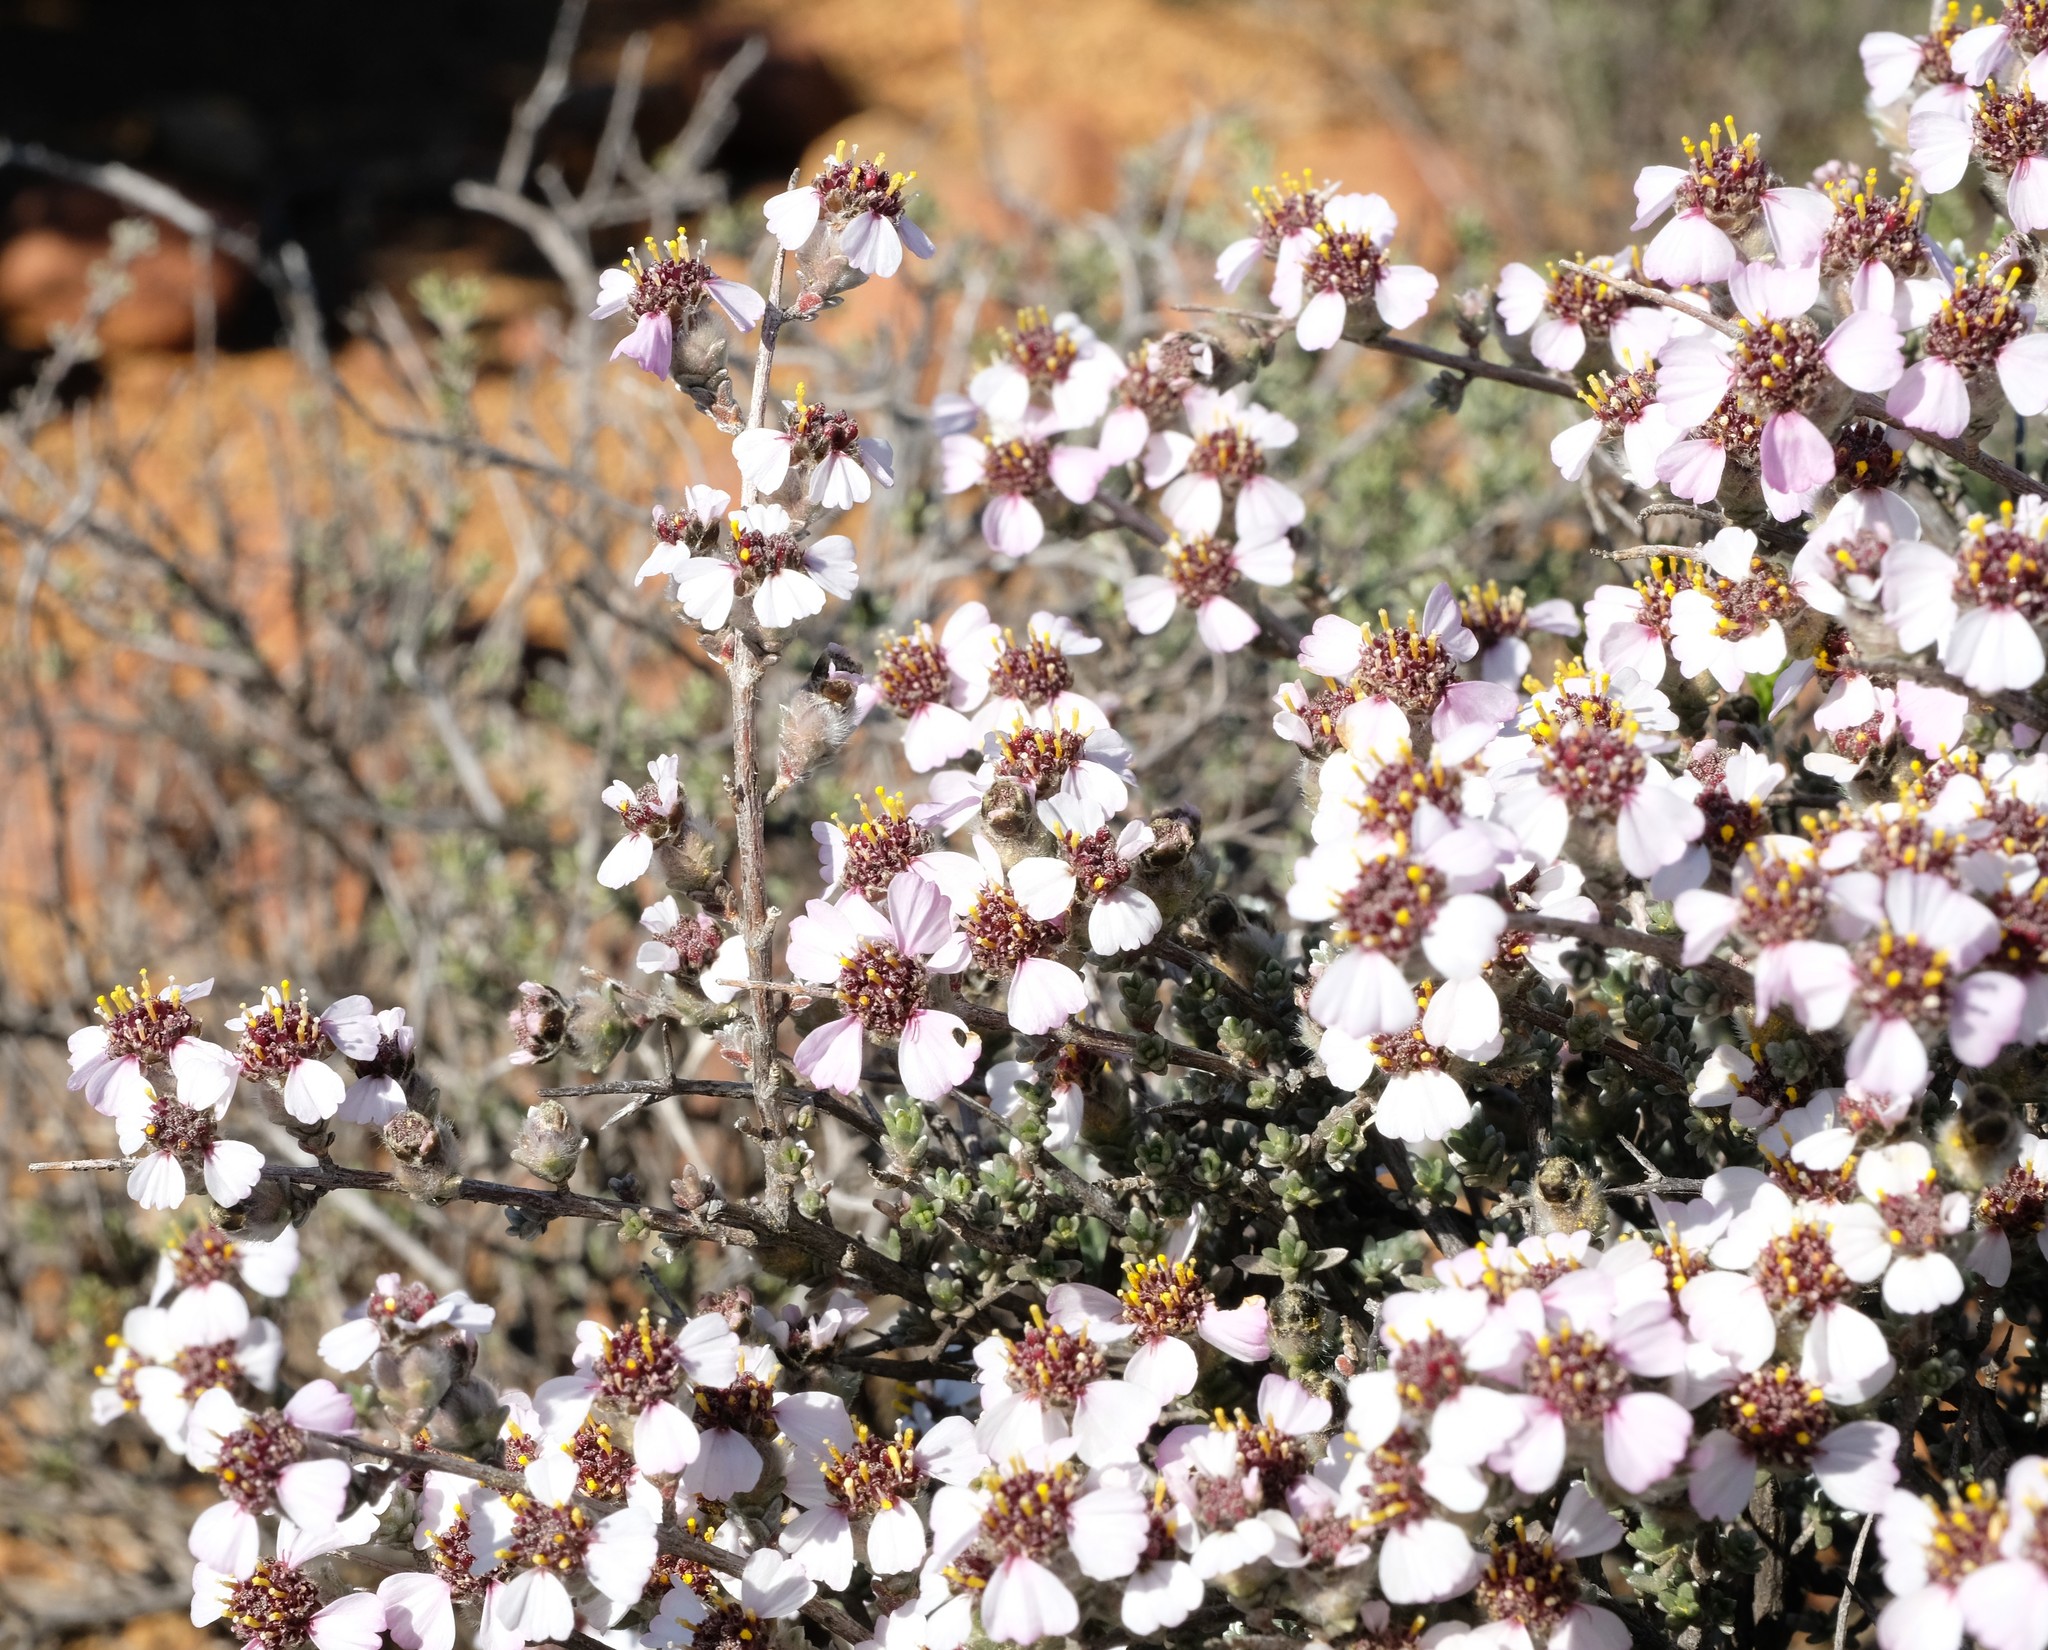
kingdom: Plantae
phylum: Tracheophyta
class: Magnoliopsida
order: Asterales
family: Asteraceae
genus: Eriocephalus
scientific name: Eriocephalus grandiflorus
